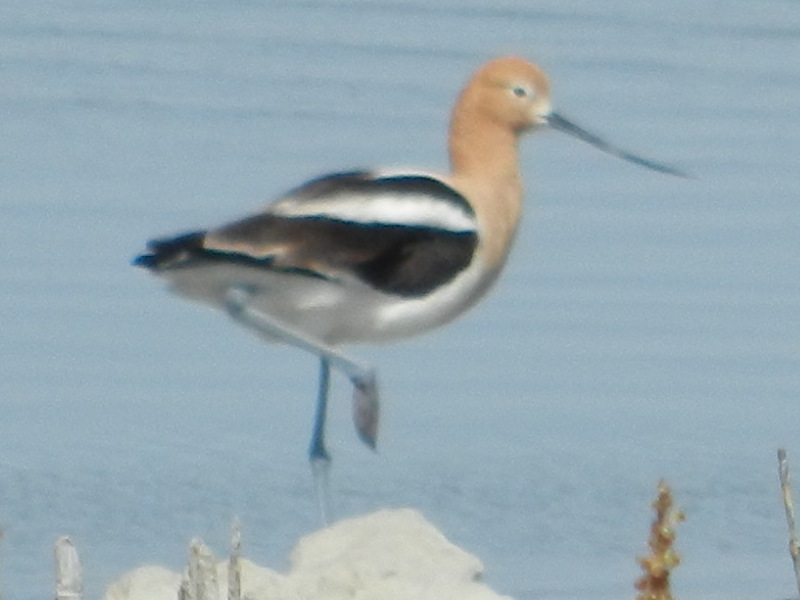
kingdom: Animalia
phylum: Chordata
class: Aves
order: Charadriiformes
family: Recurvirostridae
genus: Recurvirostra
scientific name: Recurvirostra americana
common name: American avocet
